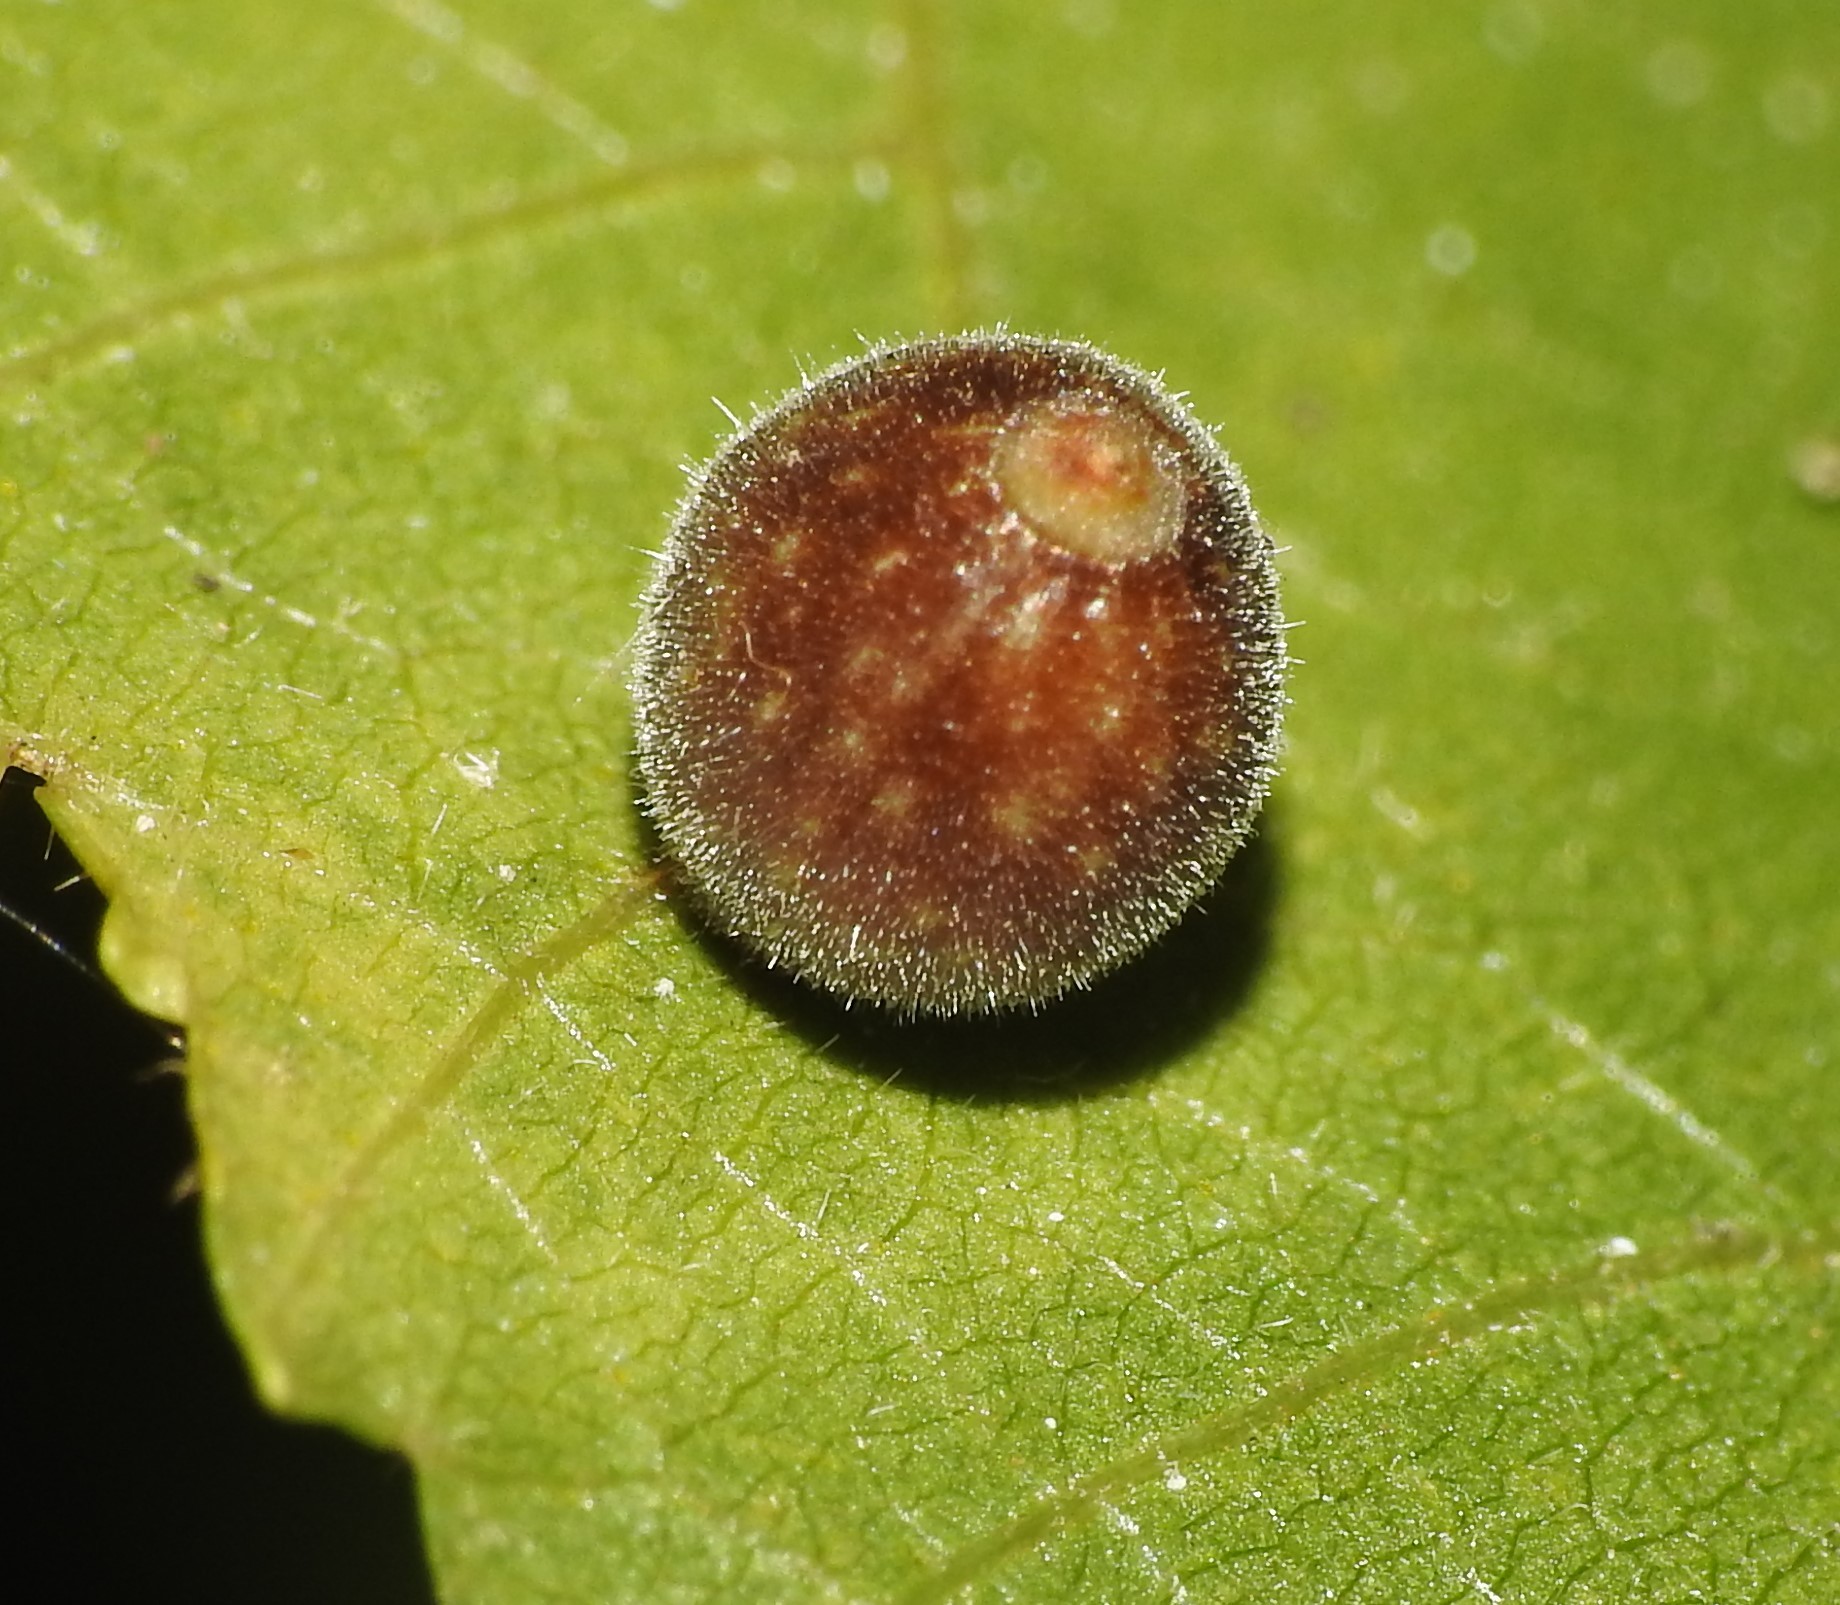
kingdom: Animalia
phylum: Arthropoda
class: Insecta
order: Diptera
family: Cecidomyiidae
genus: Caryomyia
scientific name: Caryomyia tuberidolium
